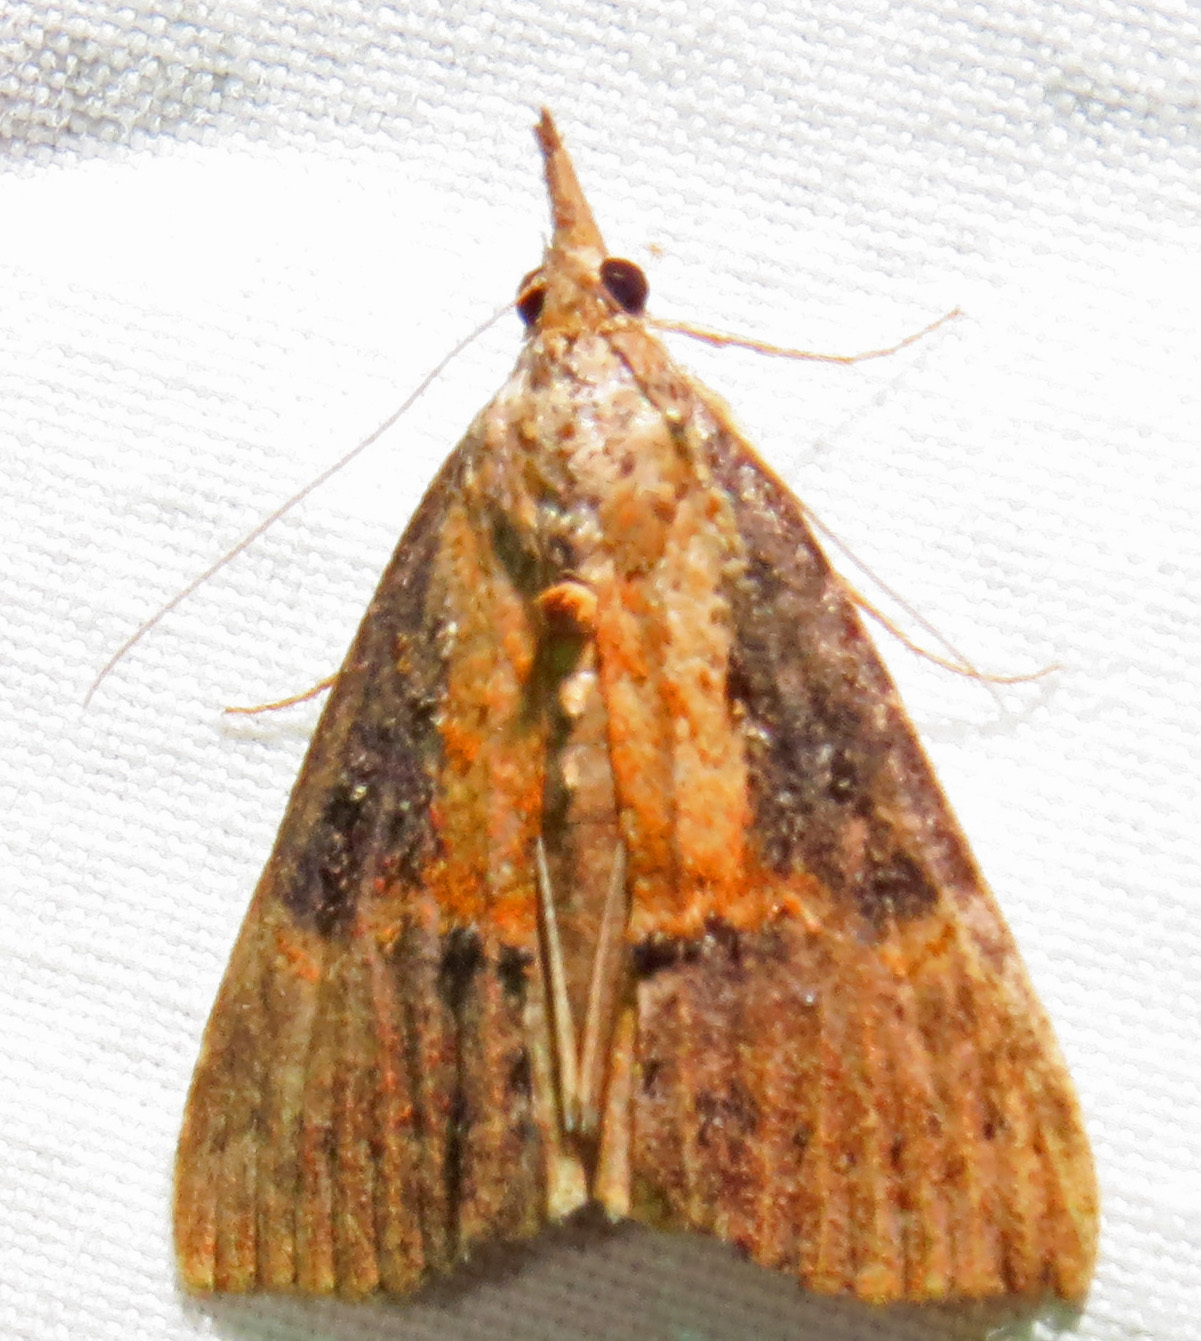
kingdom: Animalia
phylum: Arthropoda
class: Insecta
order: Lepidoptera
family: Erebidae
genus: Hypena
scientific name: Hypena scabra
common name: Green cloverworm
